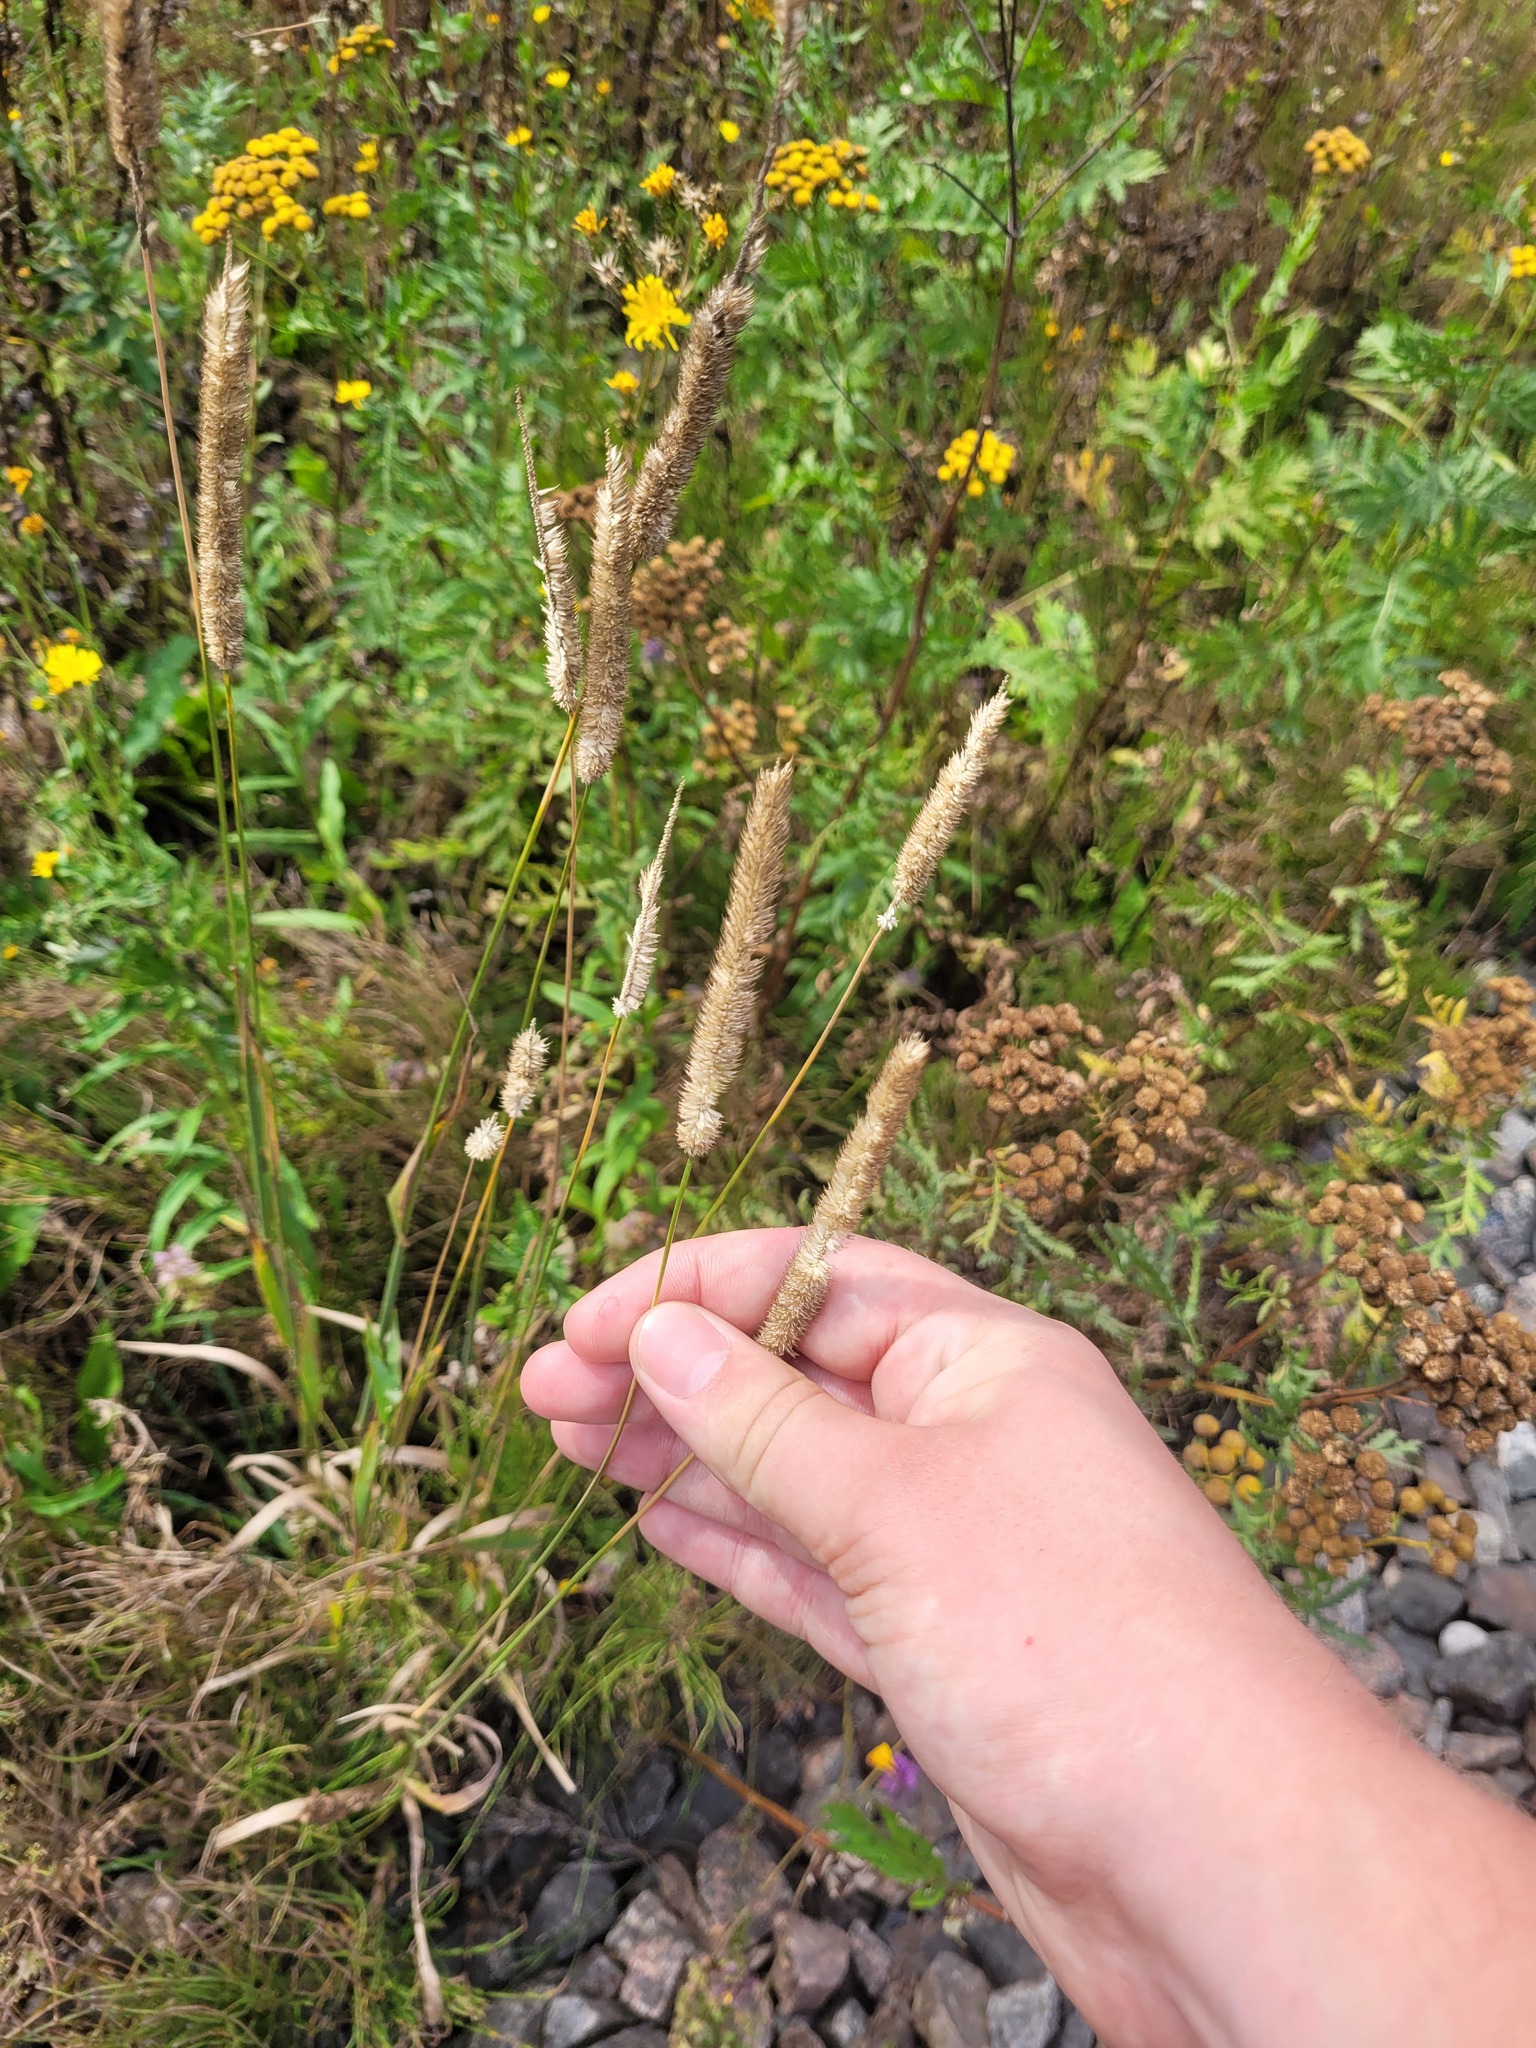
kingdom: Plantae
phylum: Tracheophyta
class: Liliopsida
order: Poales
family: Poaceae
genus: Phleum
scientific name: Phleum pratense
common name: Timothy grass
